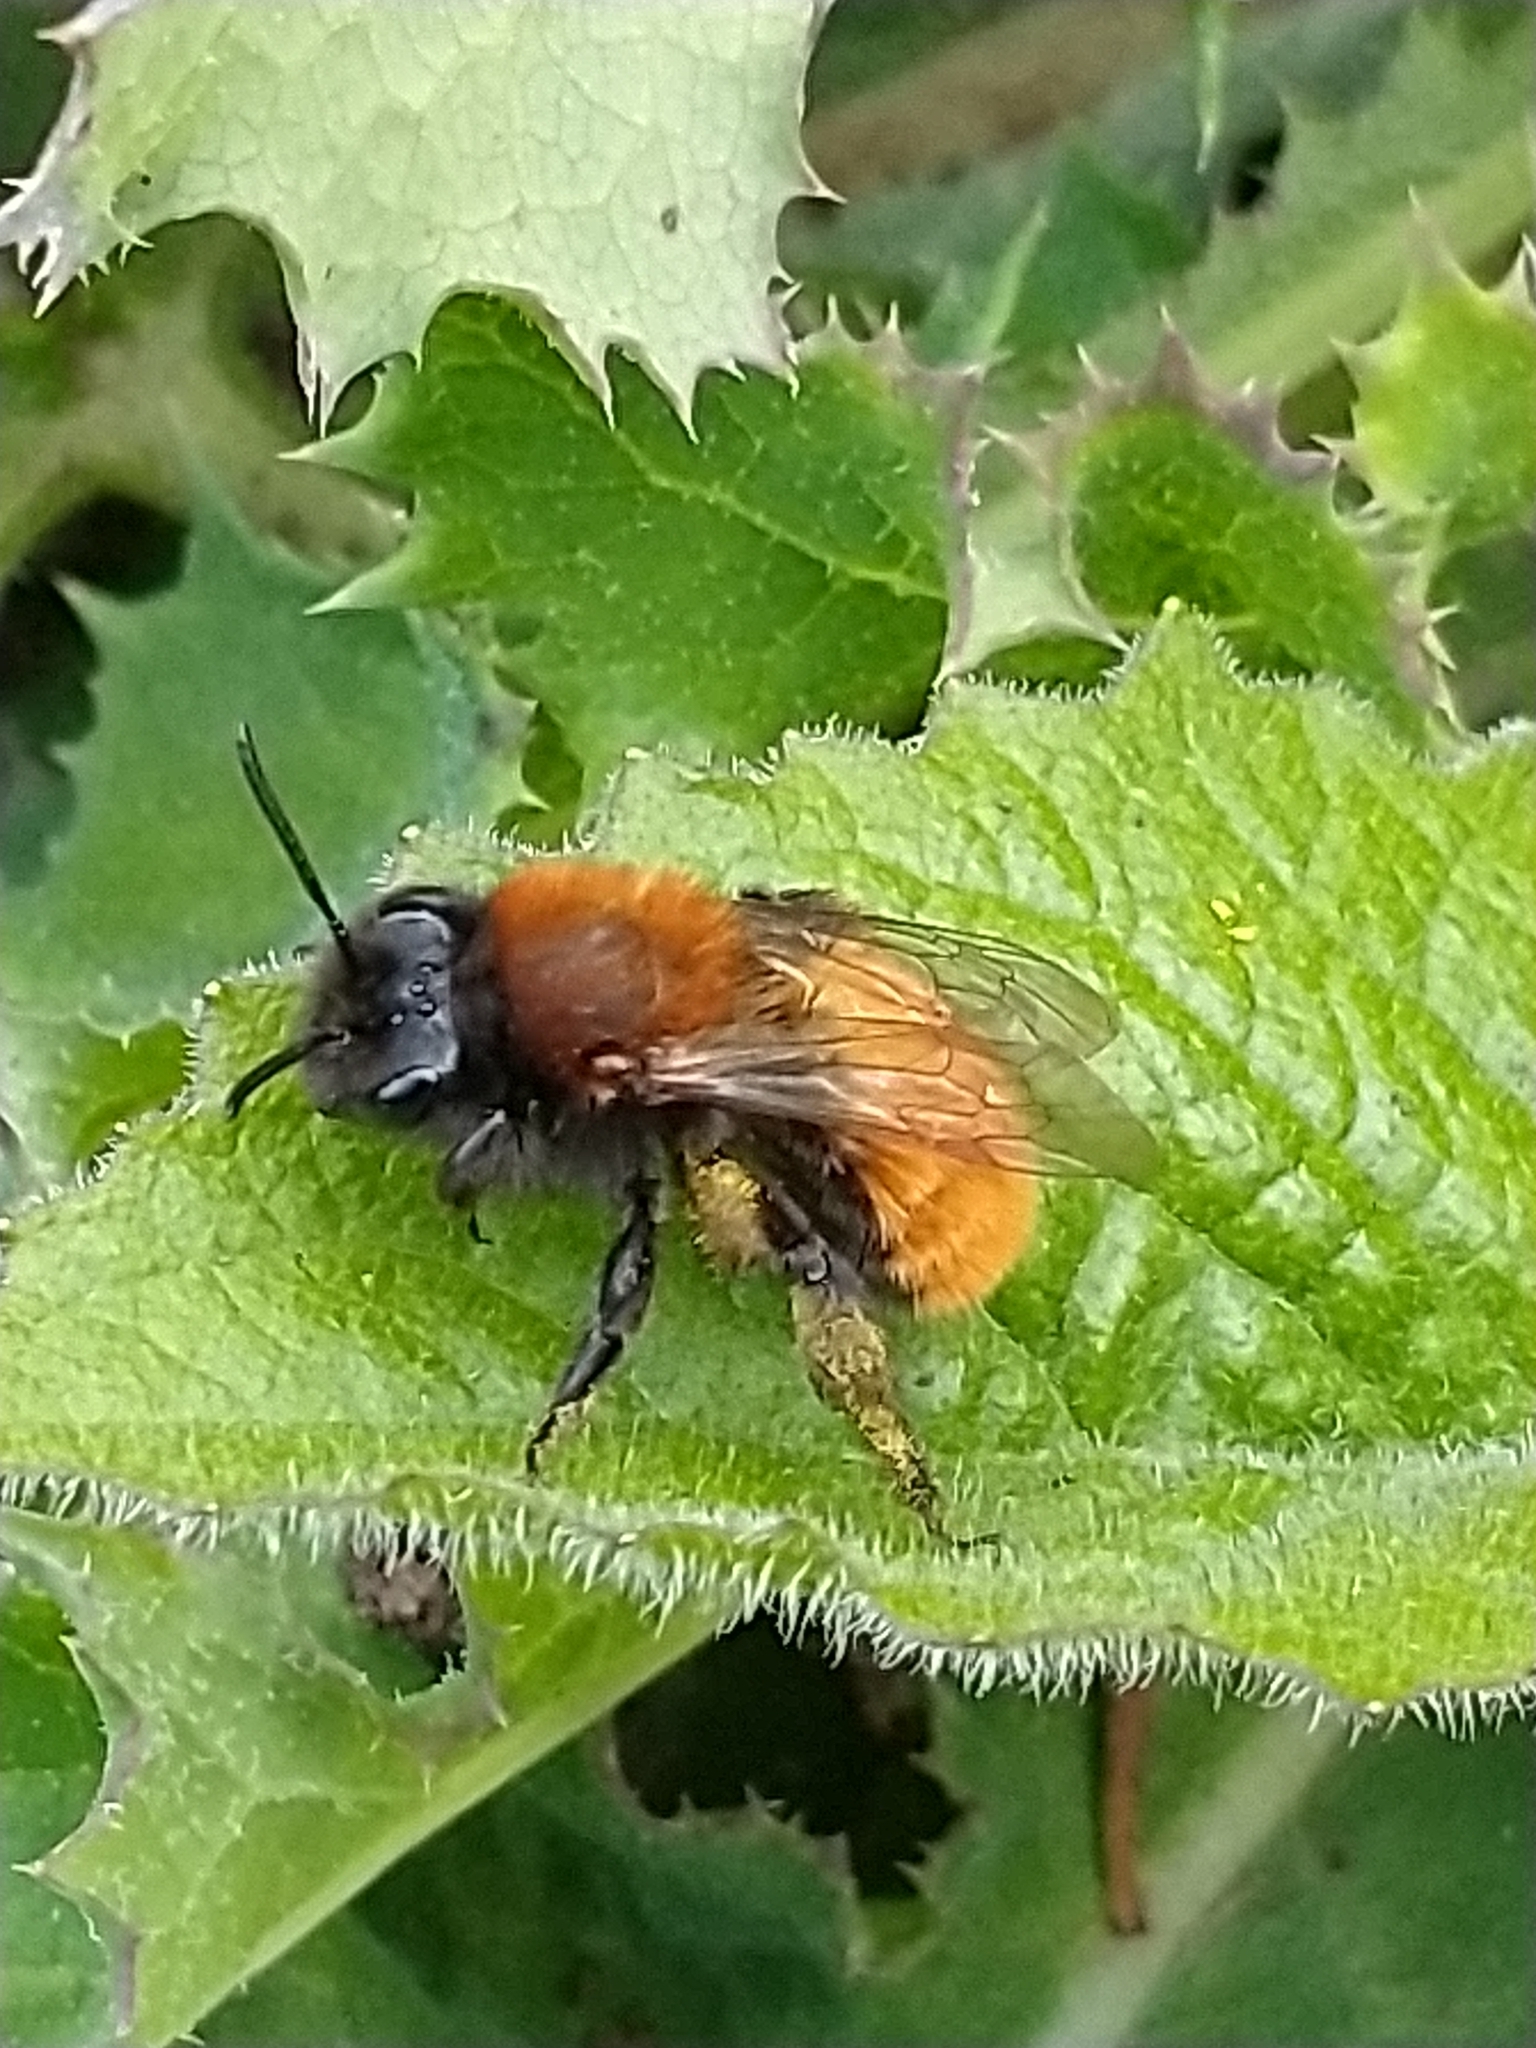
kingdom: Animalia
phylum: Arthropoda
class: Insecta
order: Hymenoptera
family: Andrenidae
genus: Andrena
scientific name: Andrena fulva
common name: Tawny mining bee
